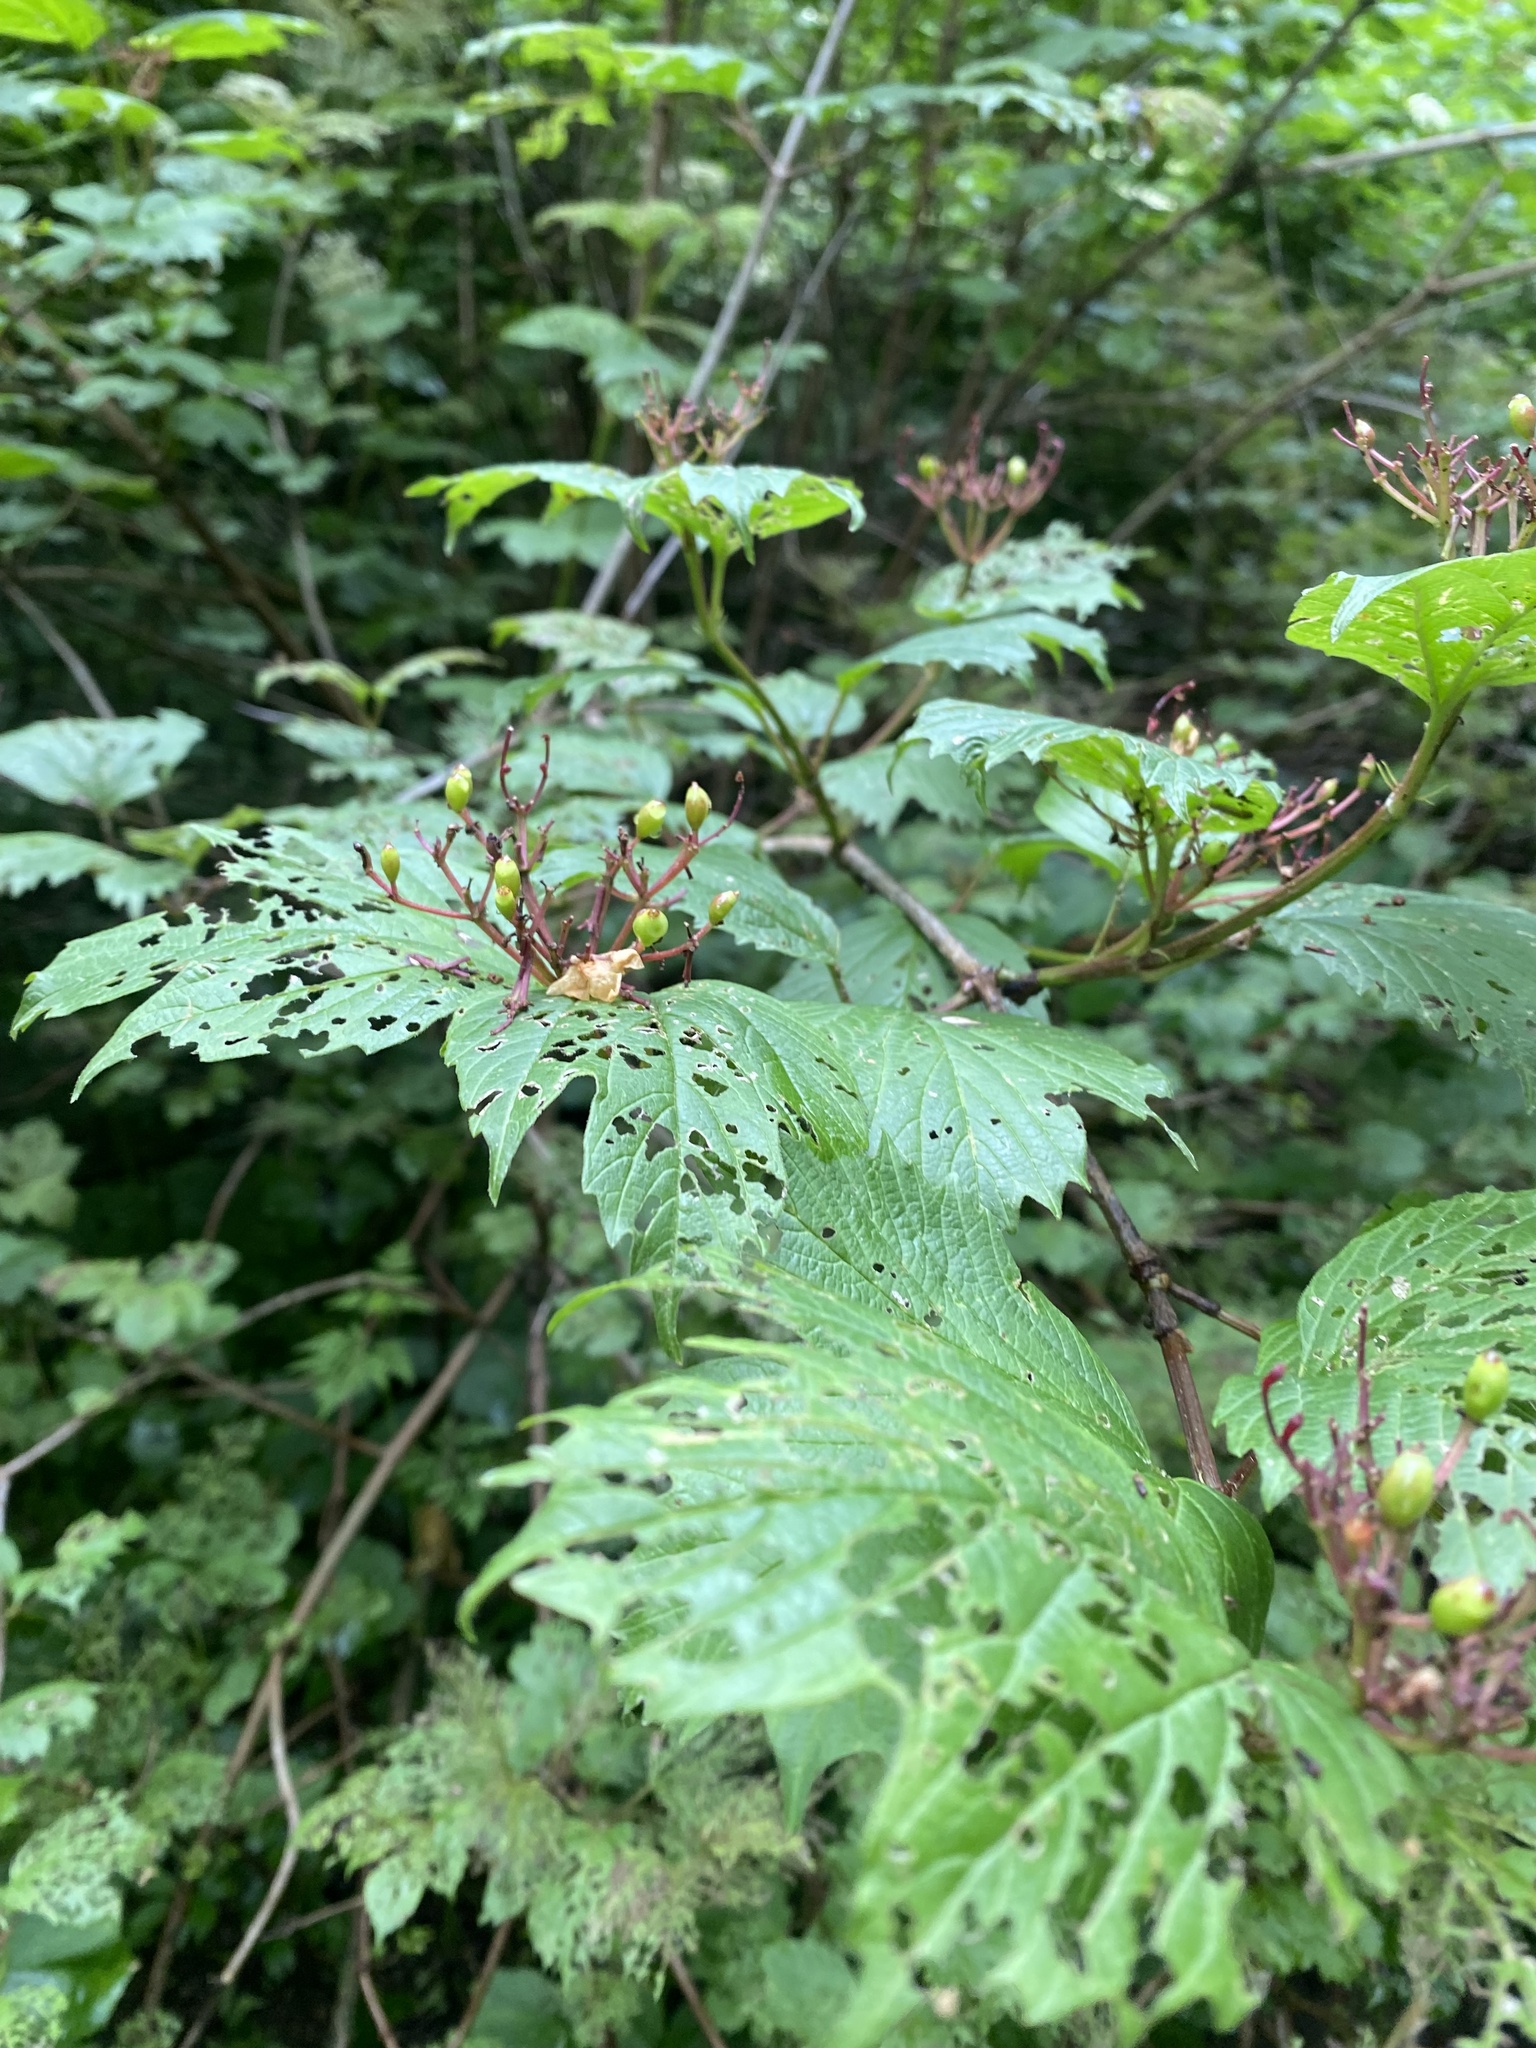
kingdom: Plantae
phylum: Tracheophyta
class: Magnoliopsida
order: Dipsacales
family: Viburnaceae
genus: Viburnum
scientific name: Viburnum opulus
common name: Guelder-rose
